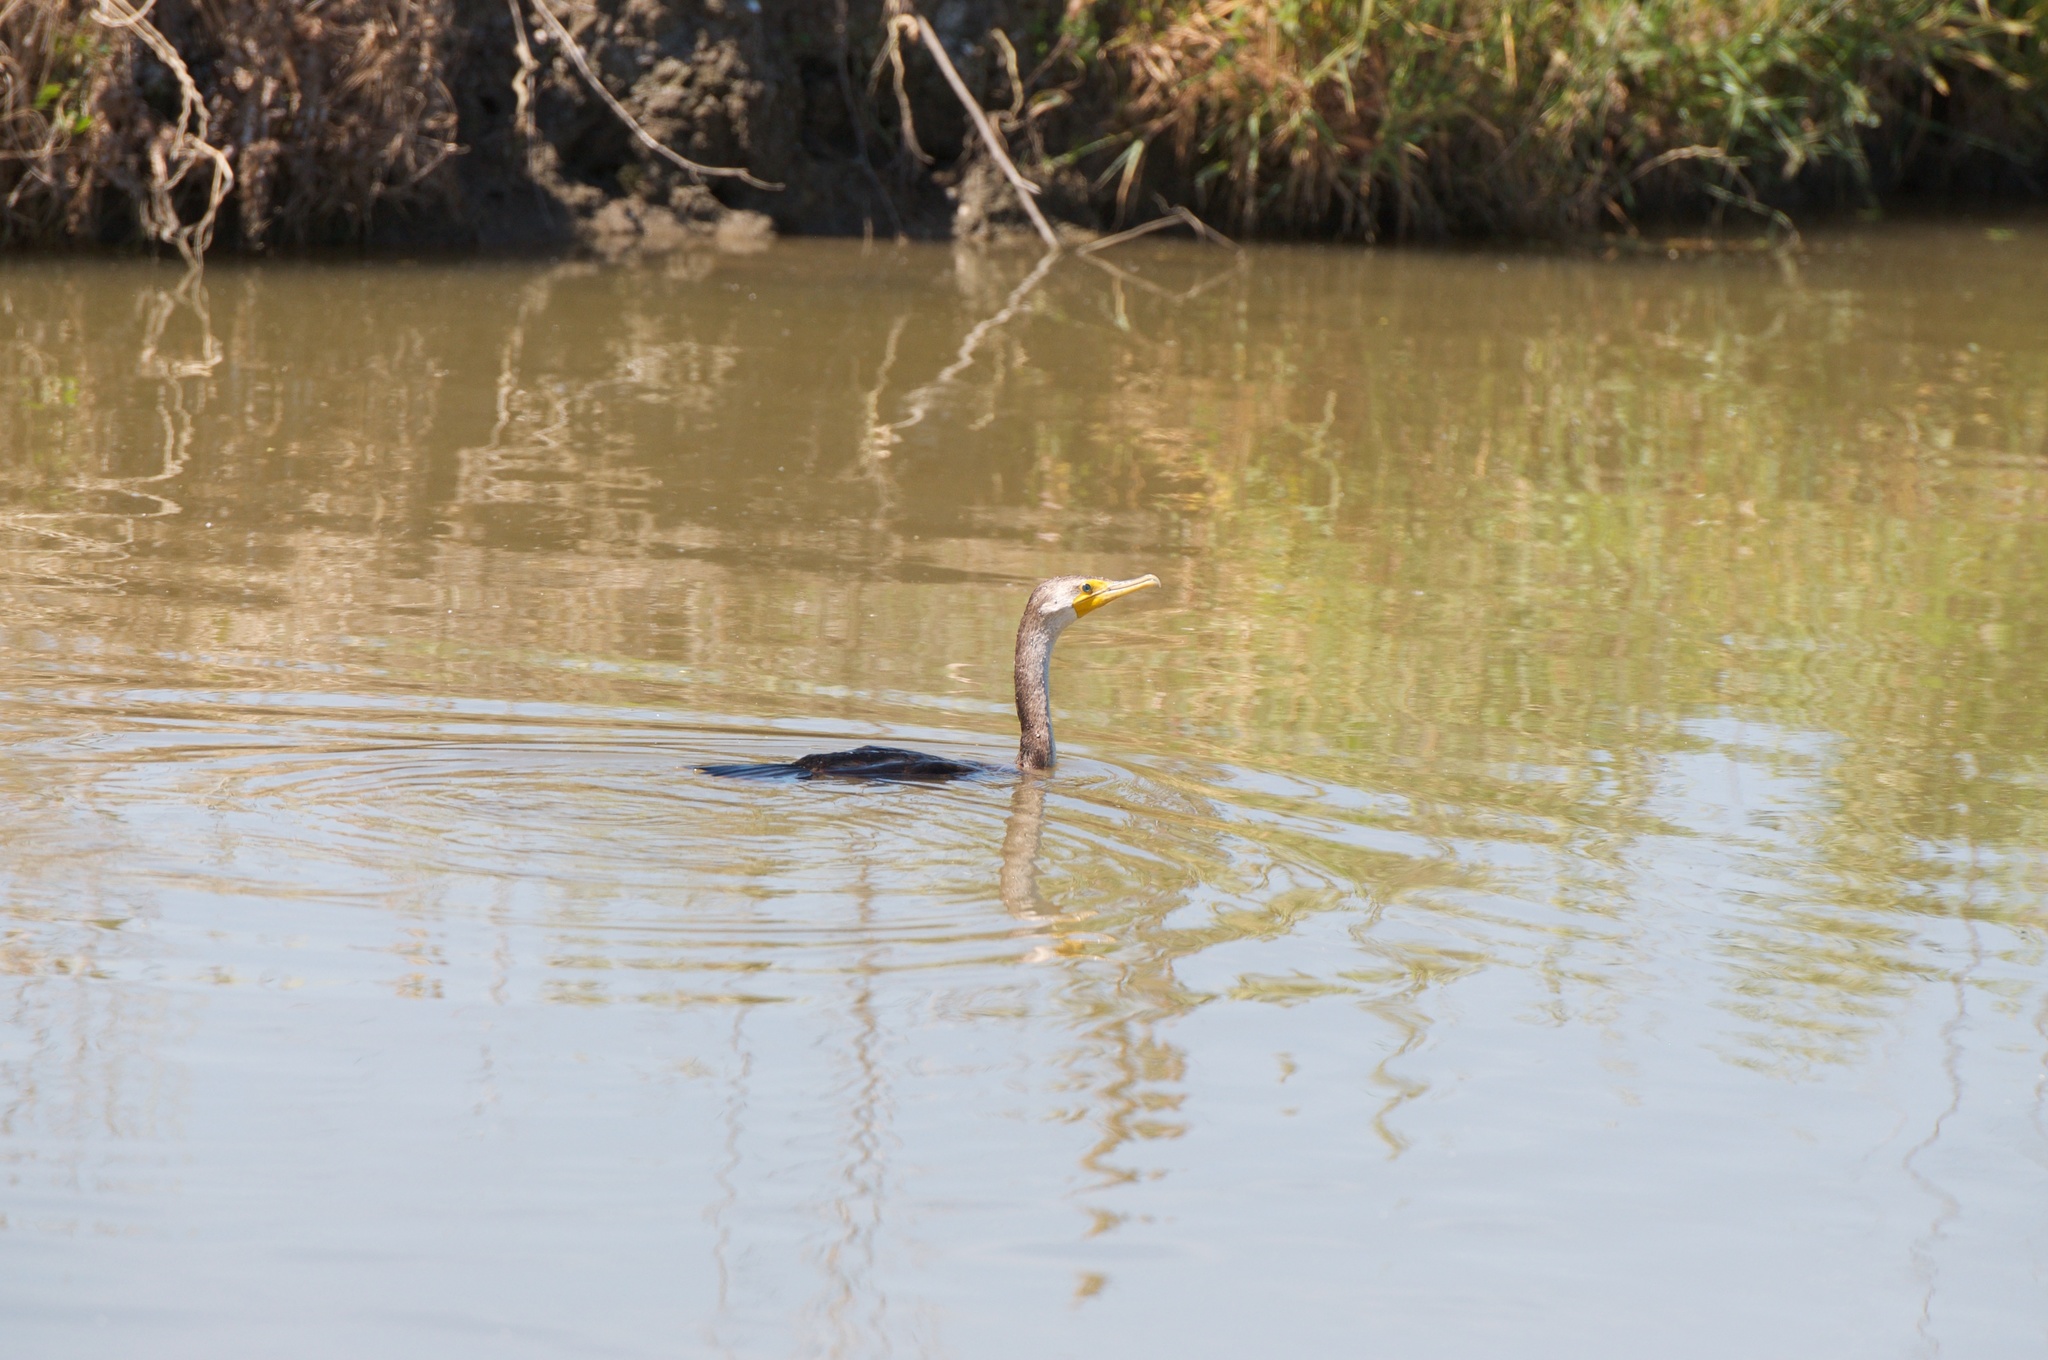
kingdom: Animalia
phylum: Chordata
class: Aves
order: Suliformes
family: Phalacrocoracidae
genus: Phalacrocorax
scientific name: Phalacrocorax auritus
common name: Double-crested cormorant
